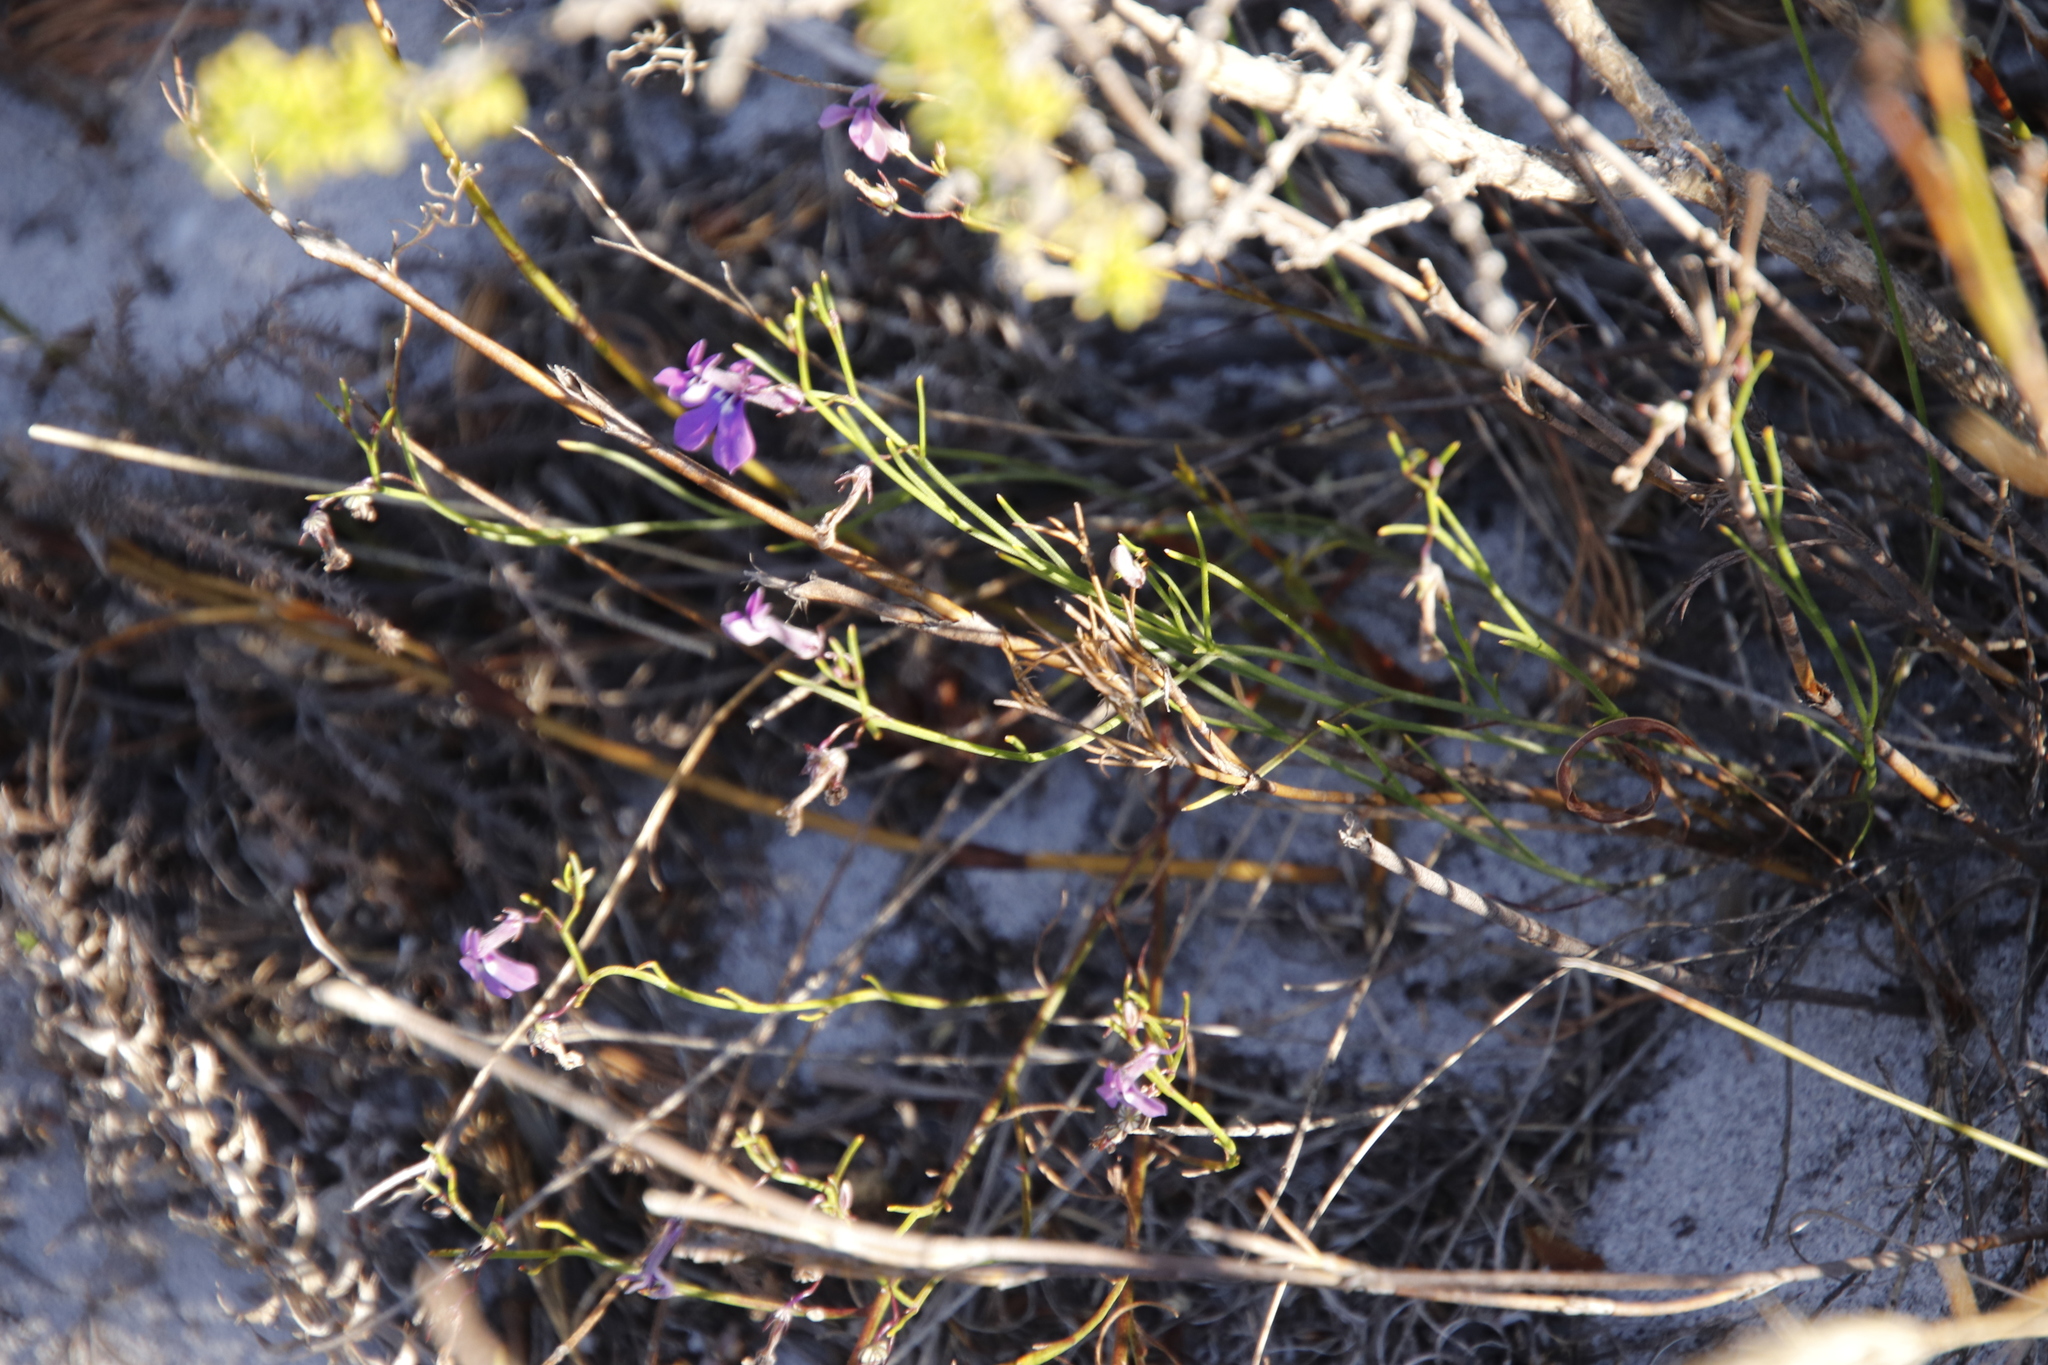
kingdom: Plantae
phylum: Tracheophyta
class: Magnoliopsida
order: Asterales
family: Campanulaceae
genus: Lobelia
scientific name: Lobelia setacea
